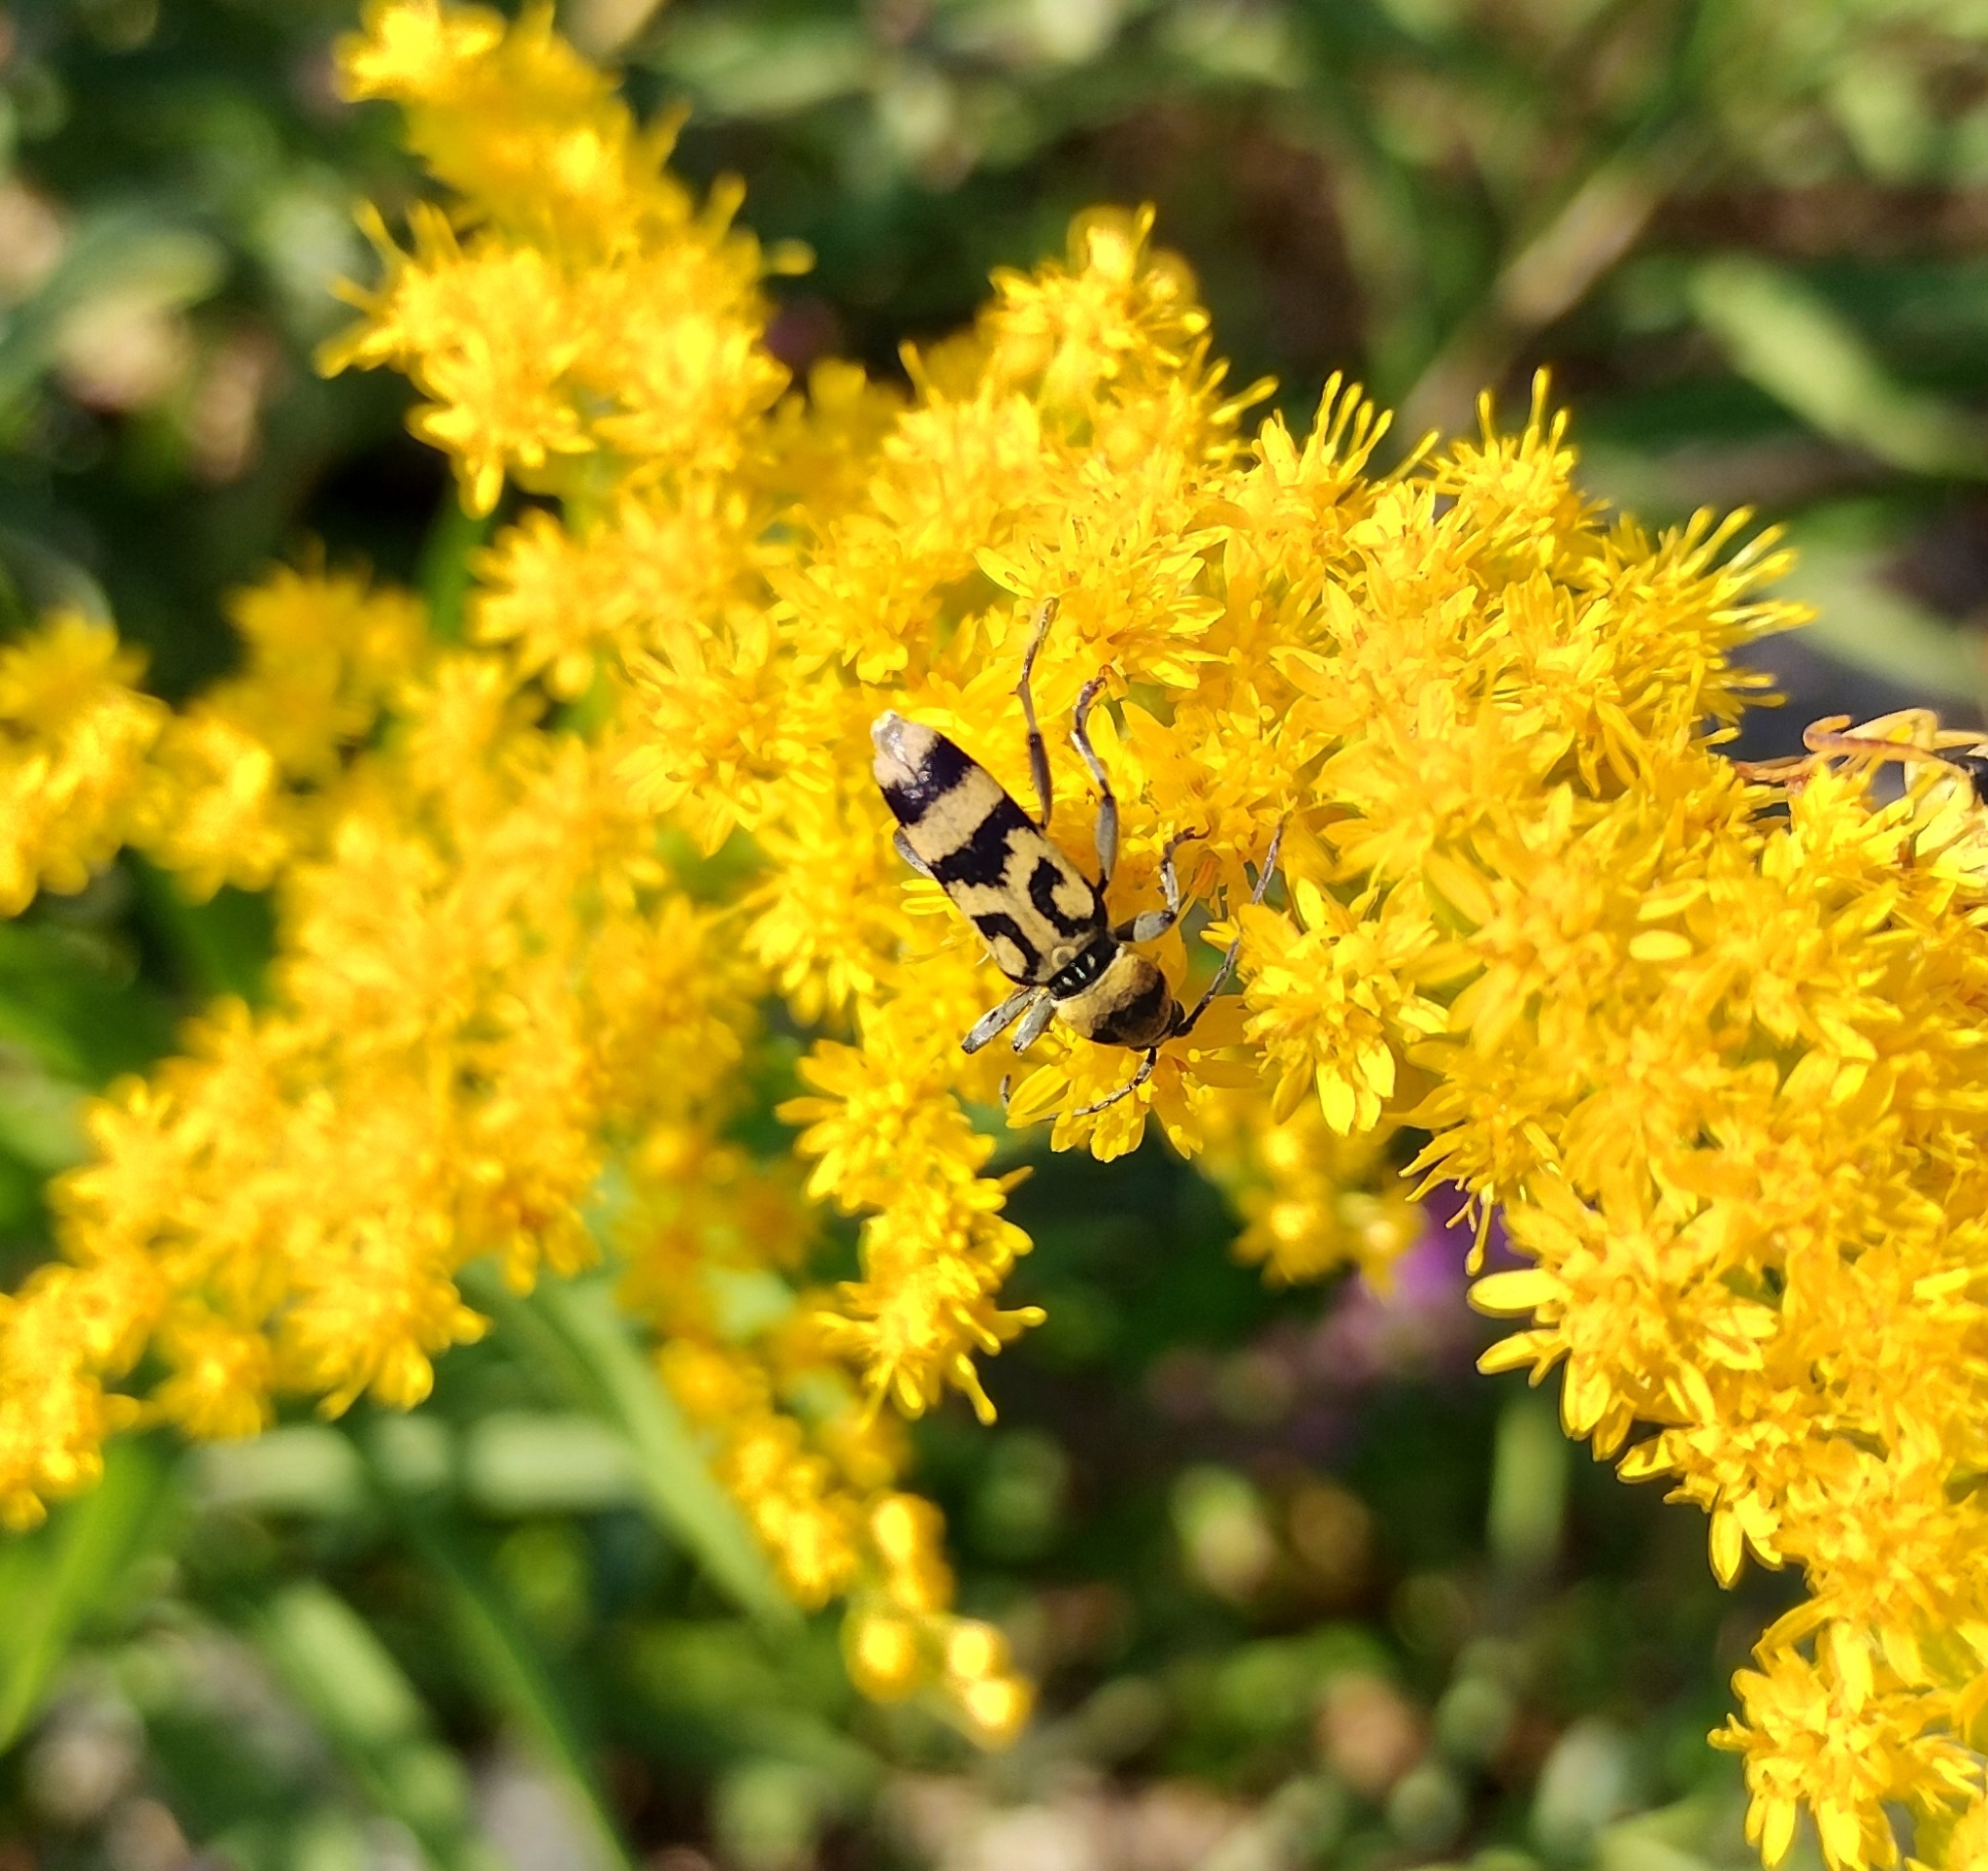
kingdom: Animalia
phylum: Arthropoda
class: Insecta
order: Coleoptera
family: Cerambycidae
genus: Chlorophorus
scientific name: Chlorophorus varius
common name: Grape wood borer
